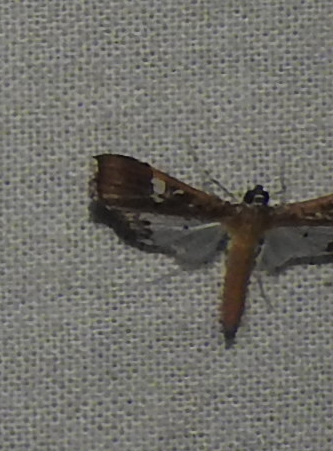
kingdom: Animalia
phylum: Arthropoda
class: Insecta
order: Lepidoptera
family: Crambidae
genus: Maruca
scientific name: Maruca vitrata
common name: Maruca pod borer
